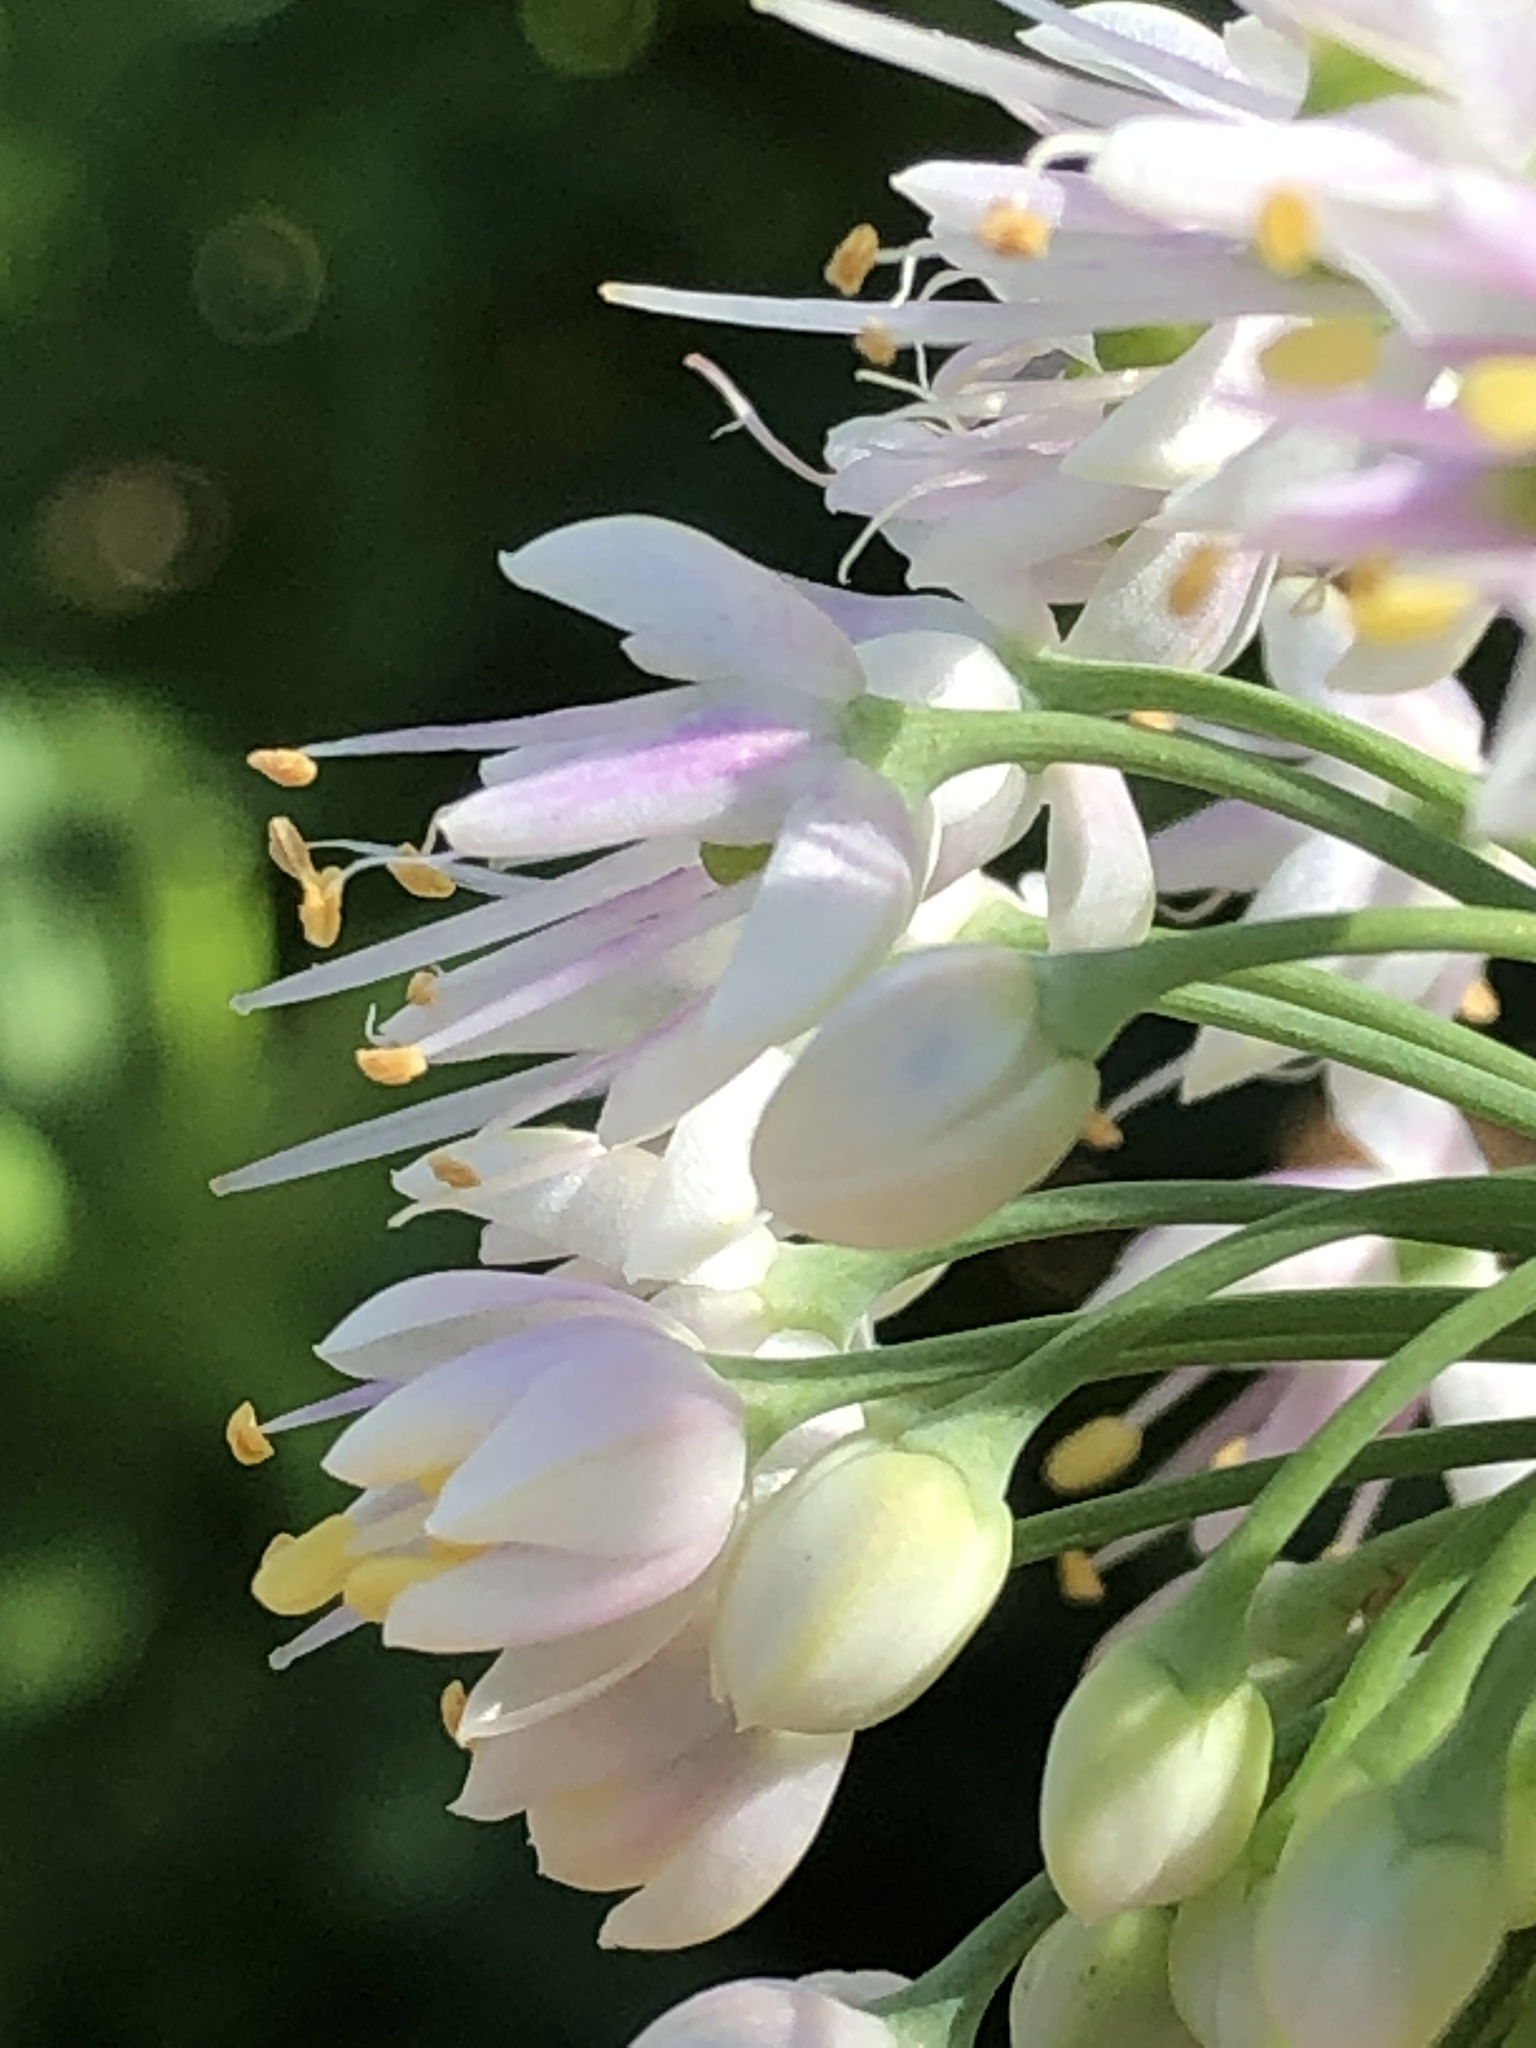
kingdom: Plantae
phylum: Tracheophyta
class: Liliopsida
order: Asparagales
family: Amaryllidaceae
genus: Allium
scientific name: Allium cernuum
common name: Nodding onion
